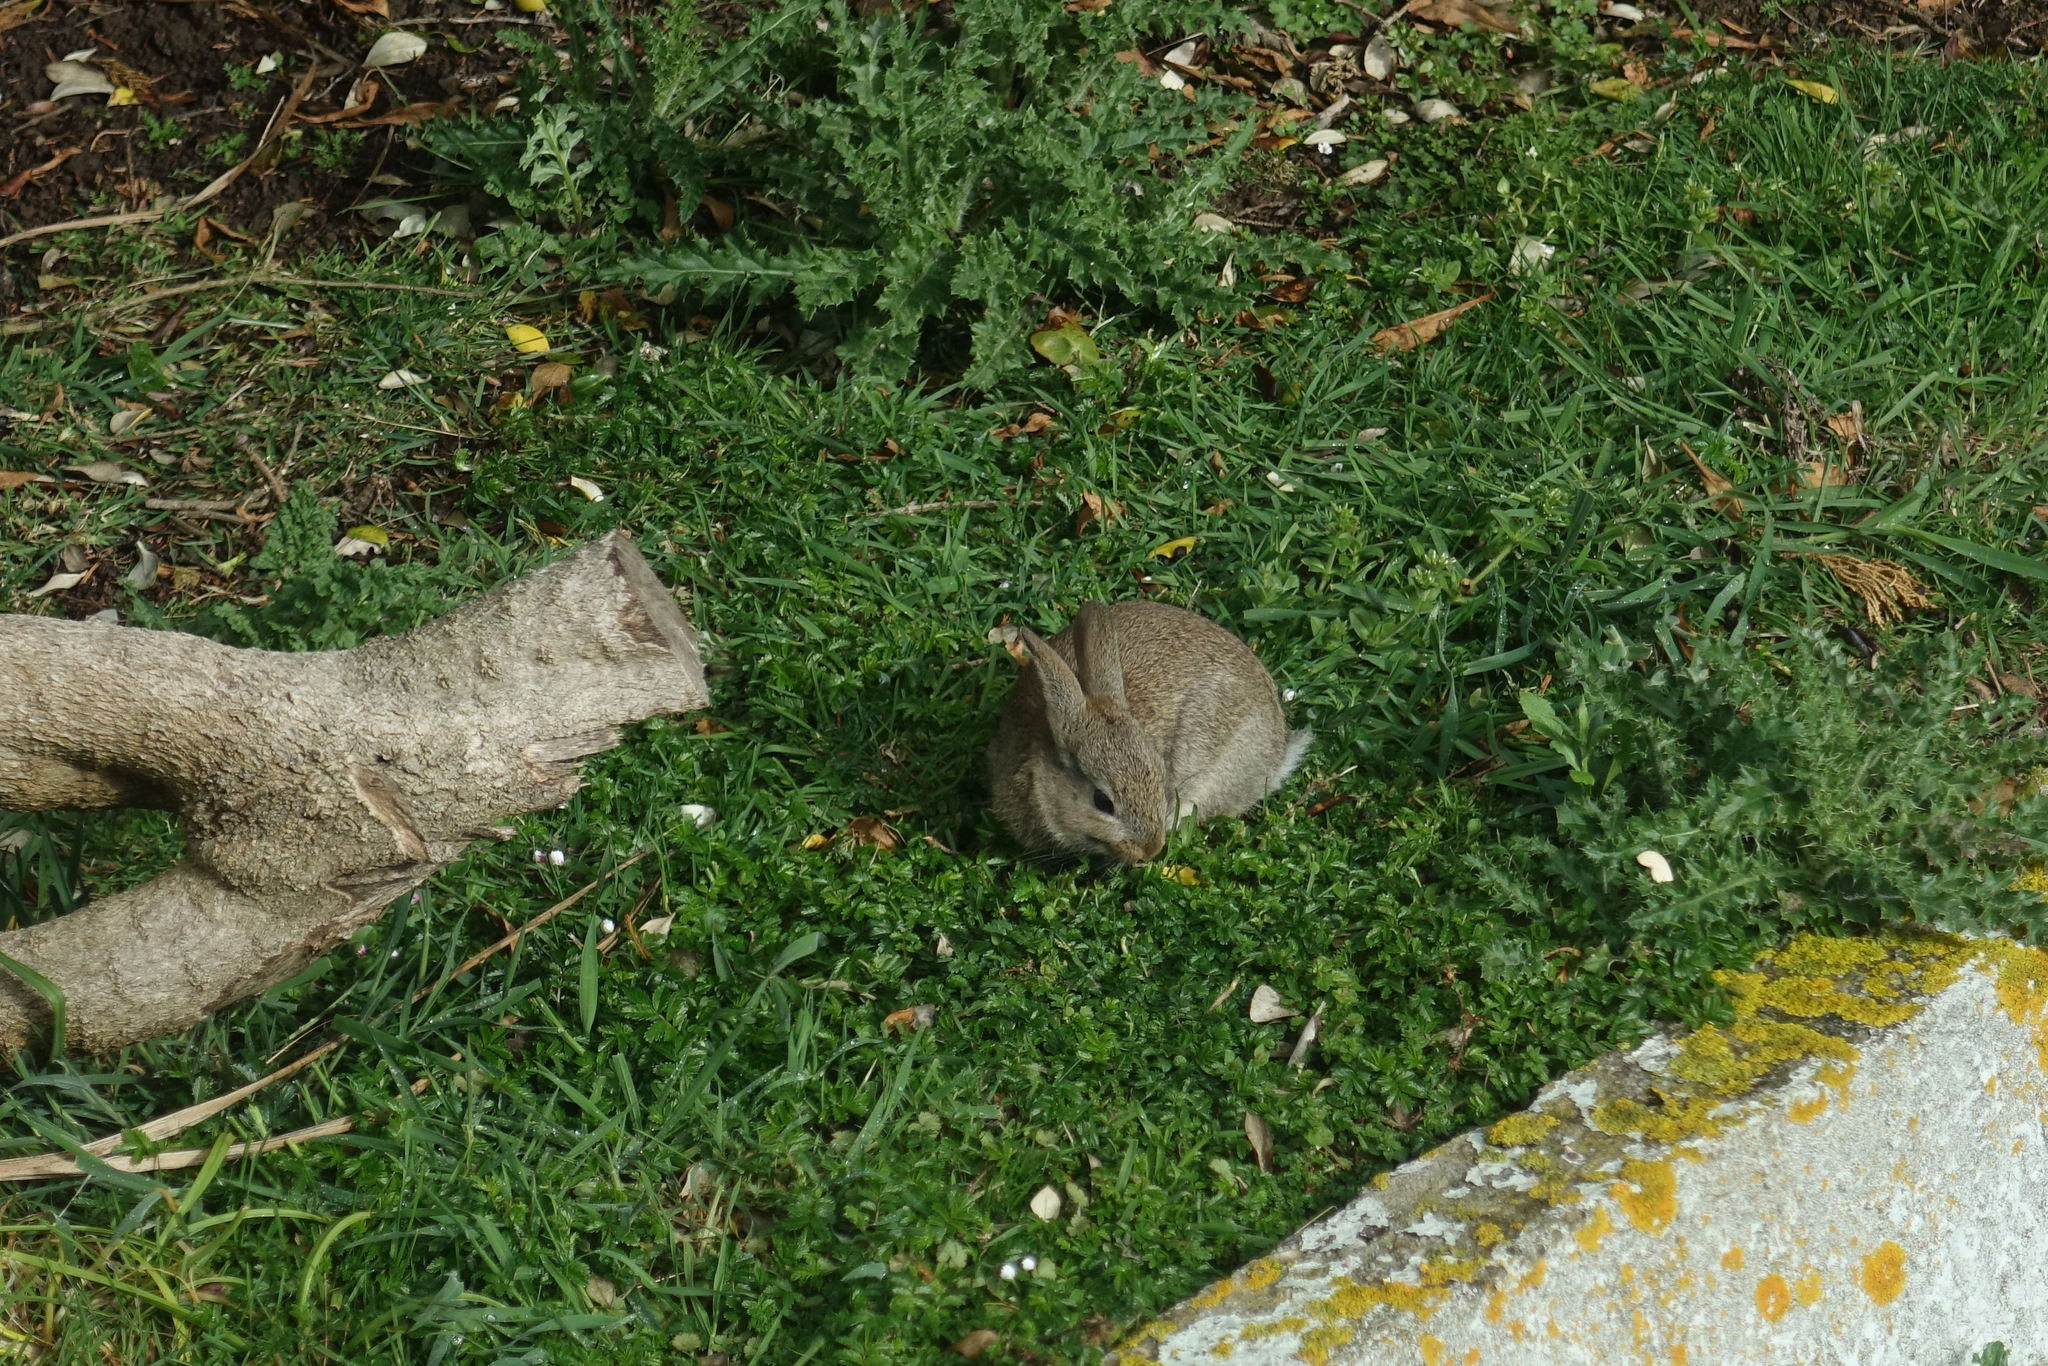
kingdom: Animalia
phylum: Chordata
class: Mammalia
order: Lagomorpha
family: Leporidae
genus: Oryctolagus
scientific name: Oryctolagus cuniculus
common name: European rabbit
